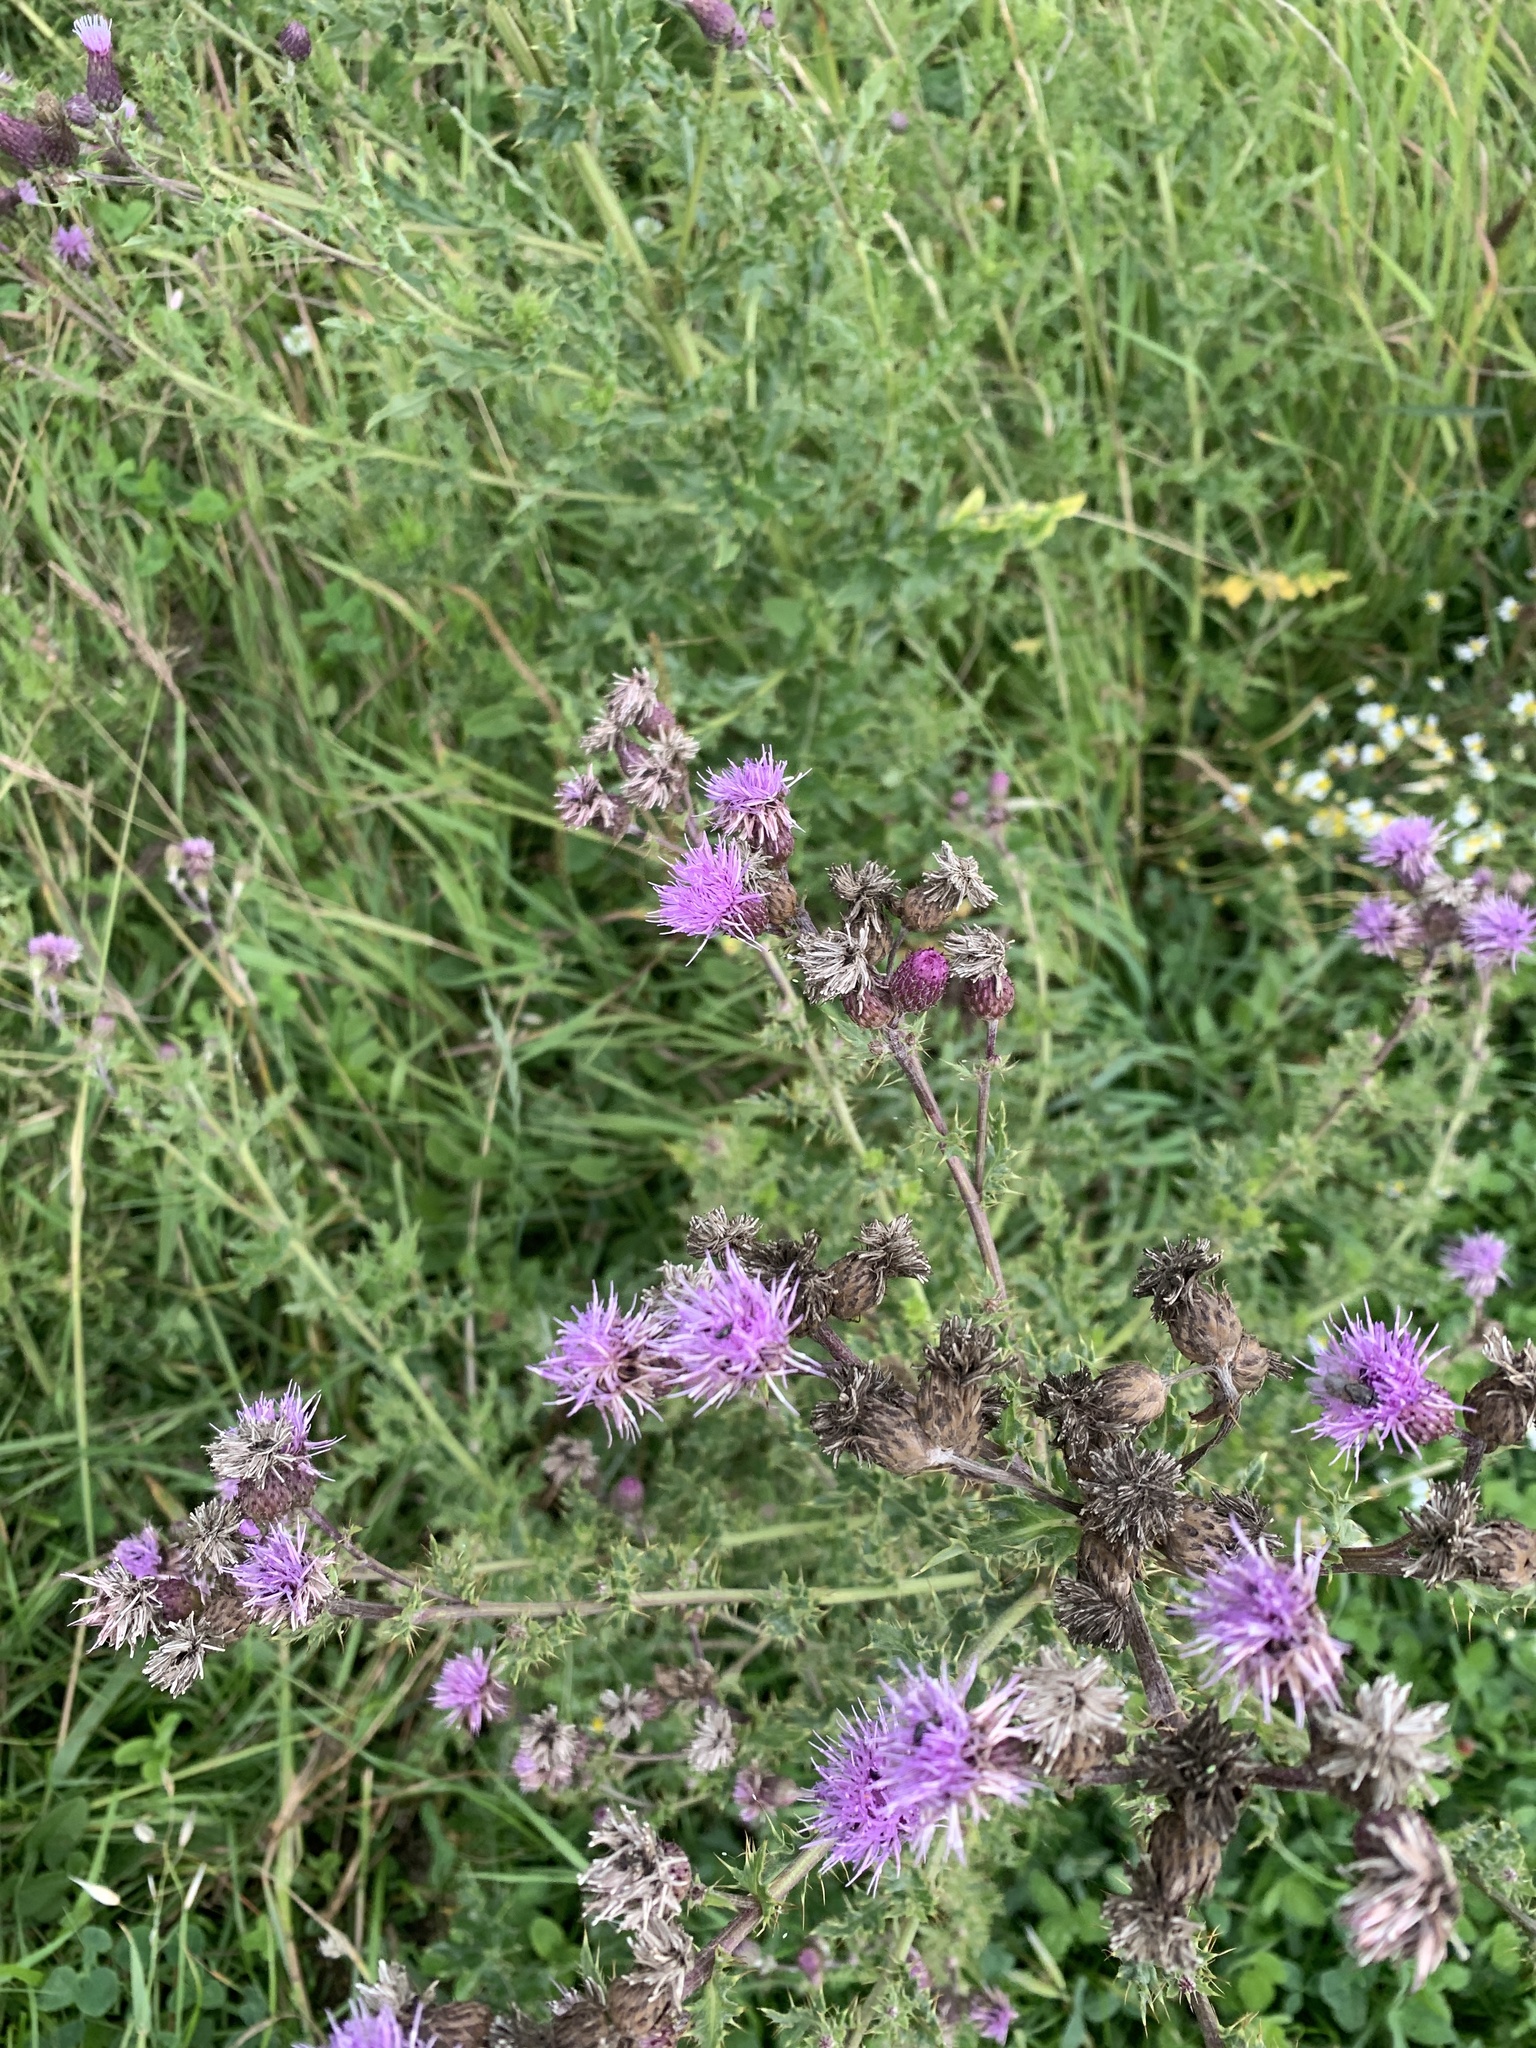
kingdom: Plantae
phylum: Tracheophyta
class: Magnoliopsida
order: Asterales
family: Asteraceae
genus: Cirsium
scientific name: Cirsium arvense
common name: Creeping thistle
